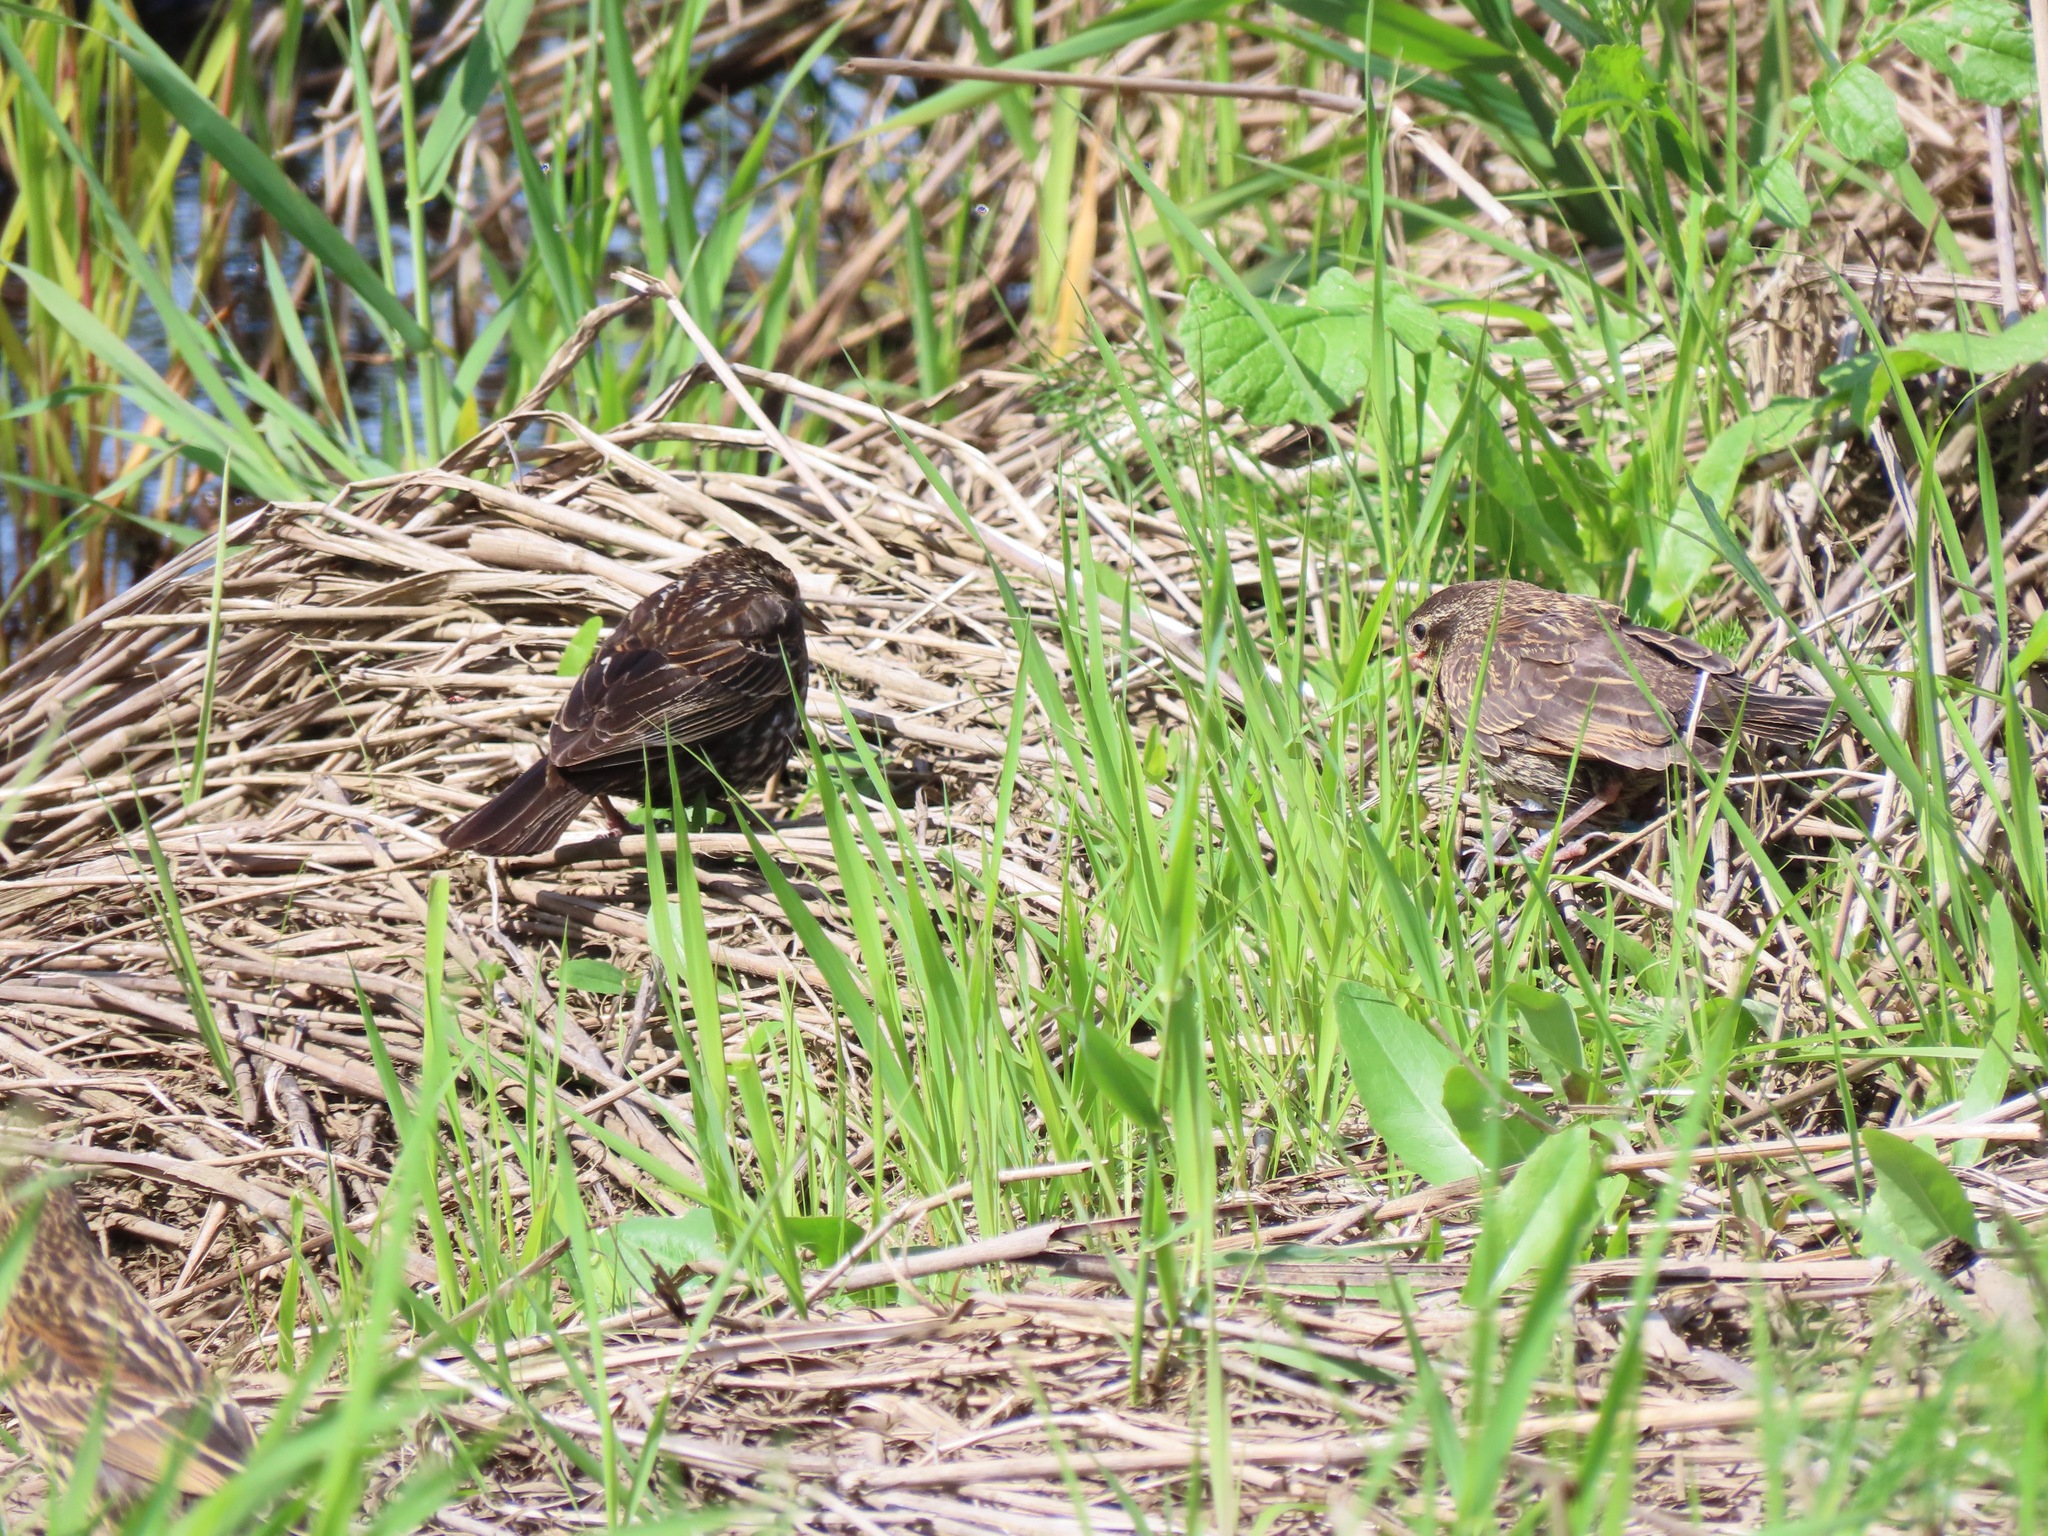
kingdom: Animalia
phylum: Chordata
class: Aves
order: Passeriformes
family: Icteridae
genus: Agelaius
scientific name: Agelaius phoeniceus
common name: Red-winged blackbird
